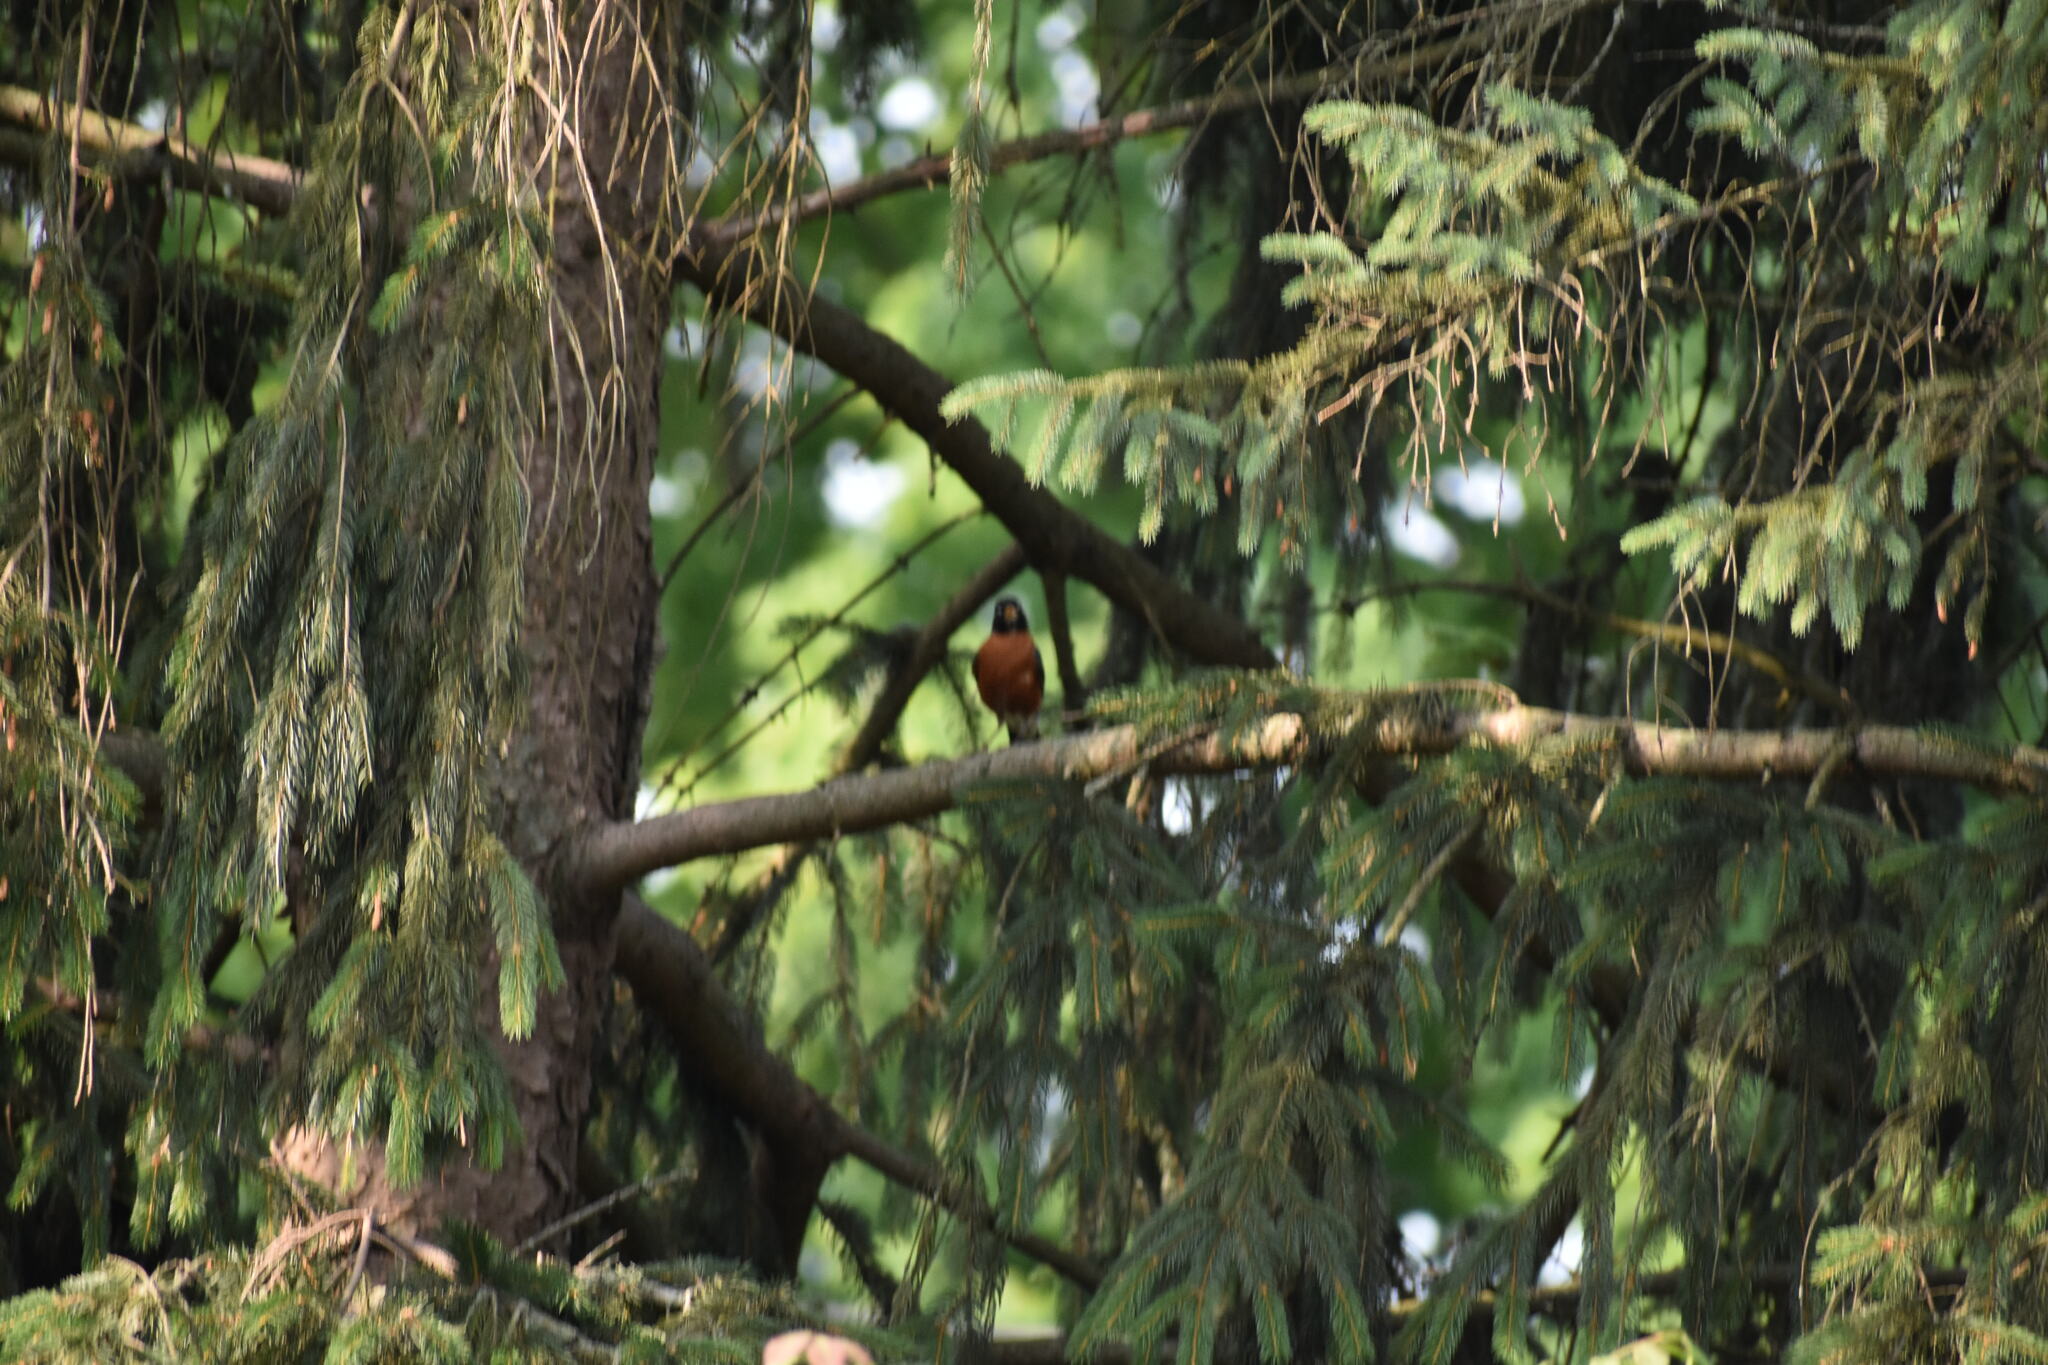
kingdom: Animalia
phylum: Chordata
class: Aves
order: Passeriformes
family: Turdidae
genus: Turdus
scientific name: Turdus migratorius
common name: American robin
